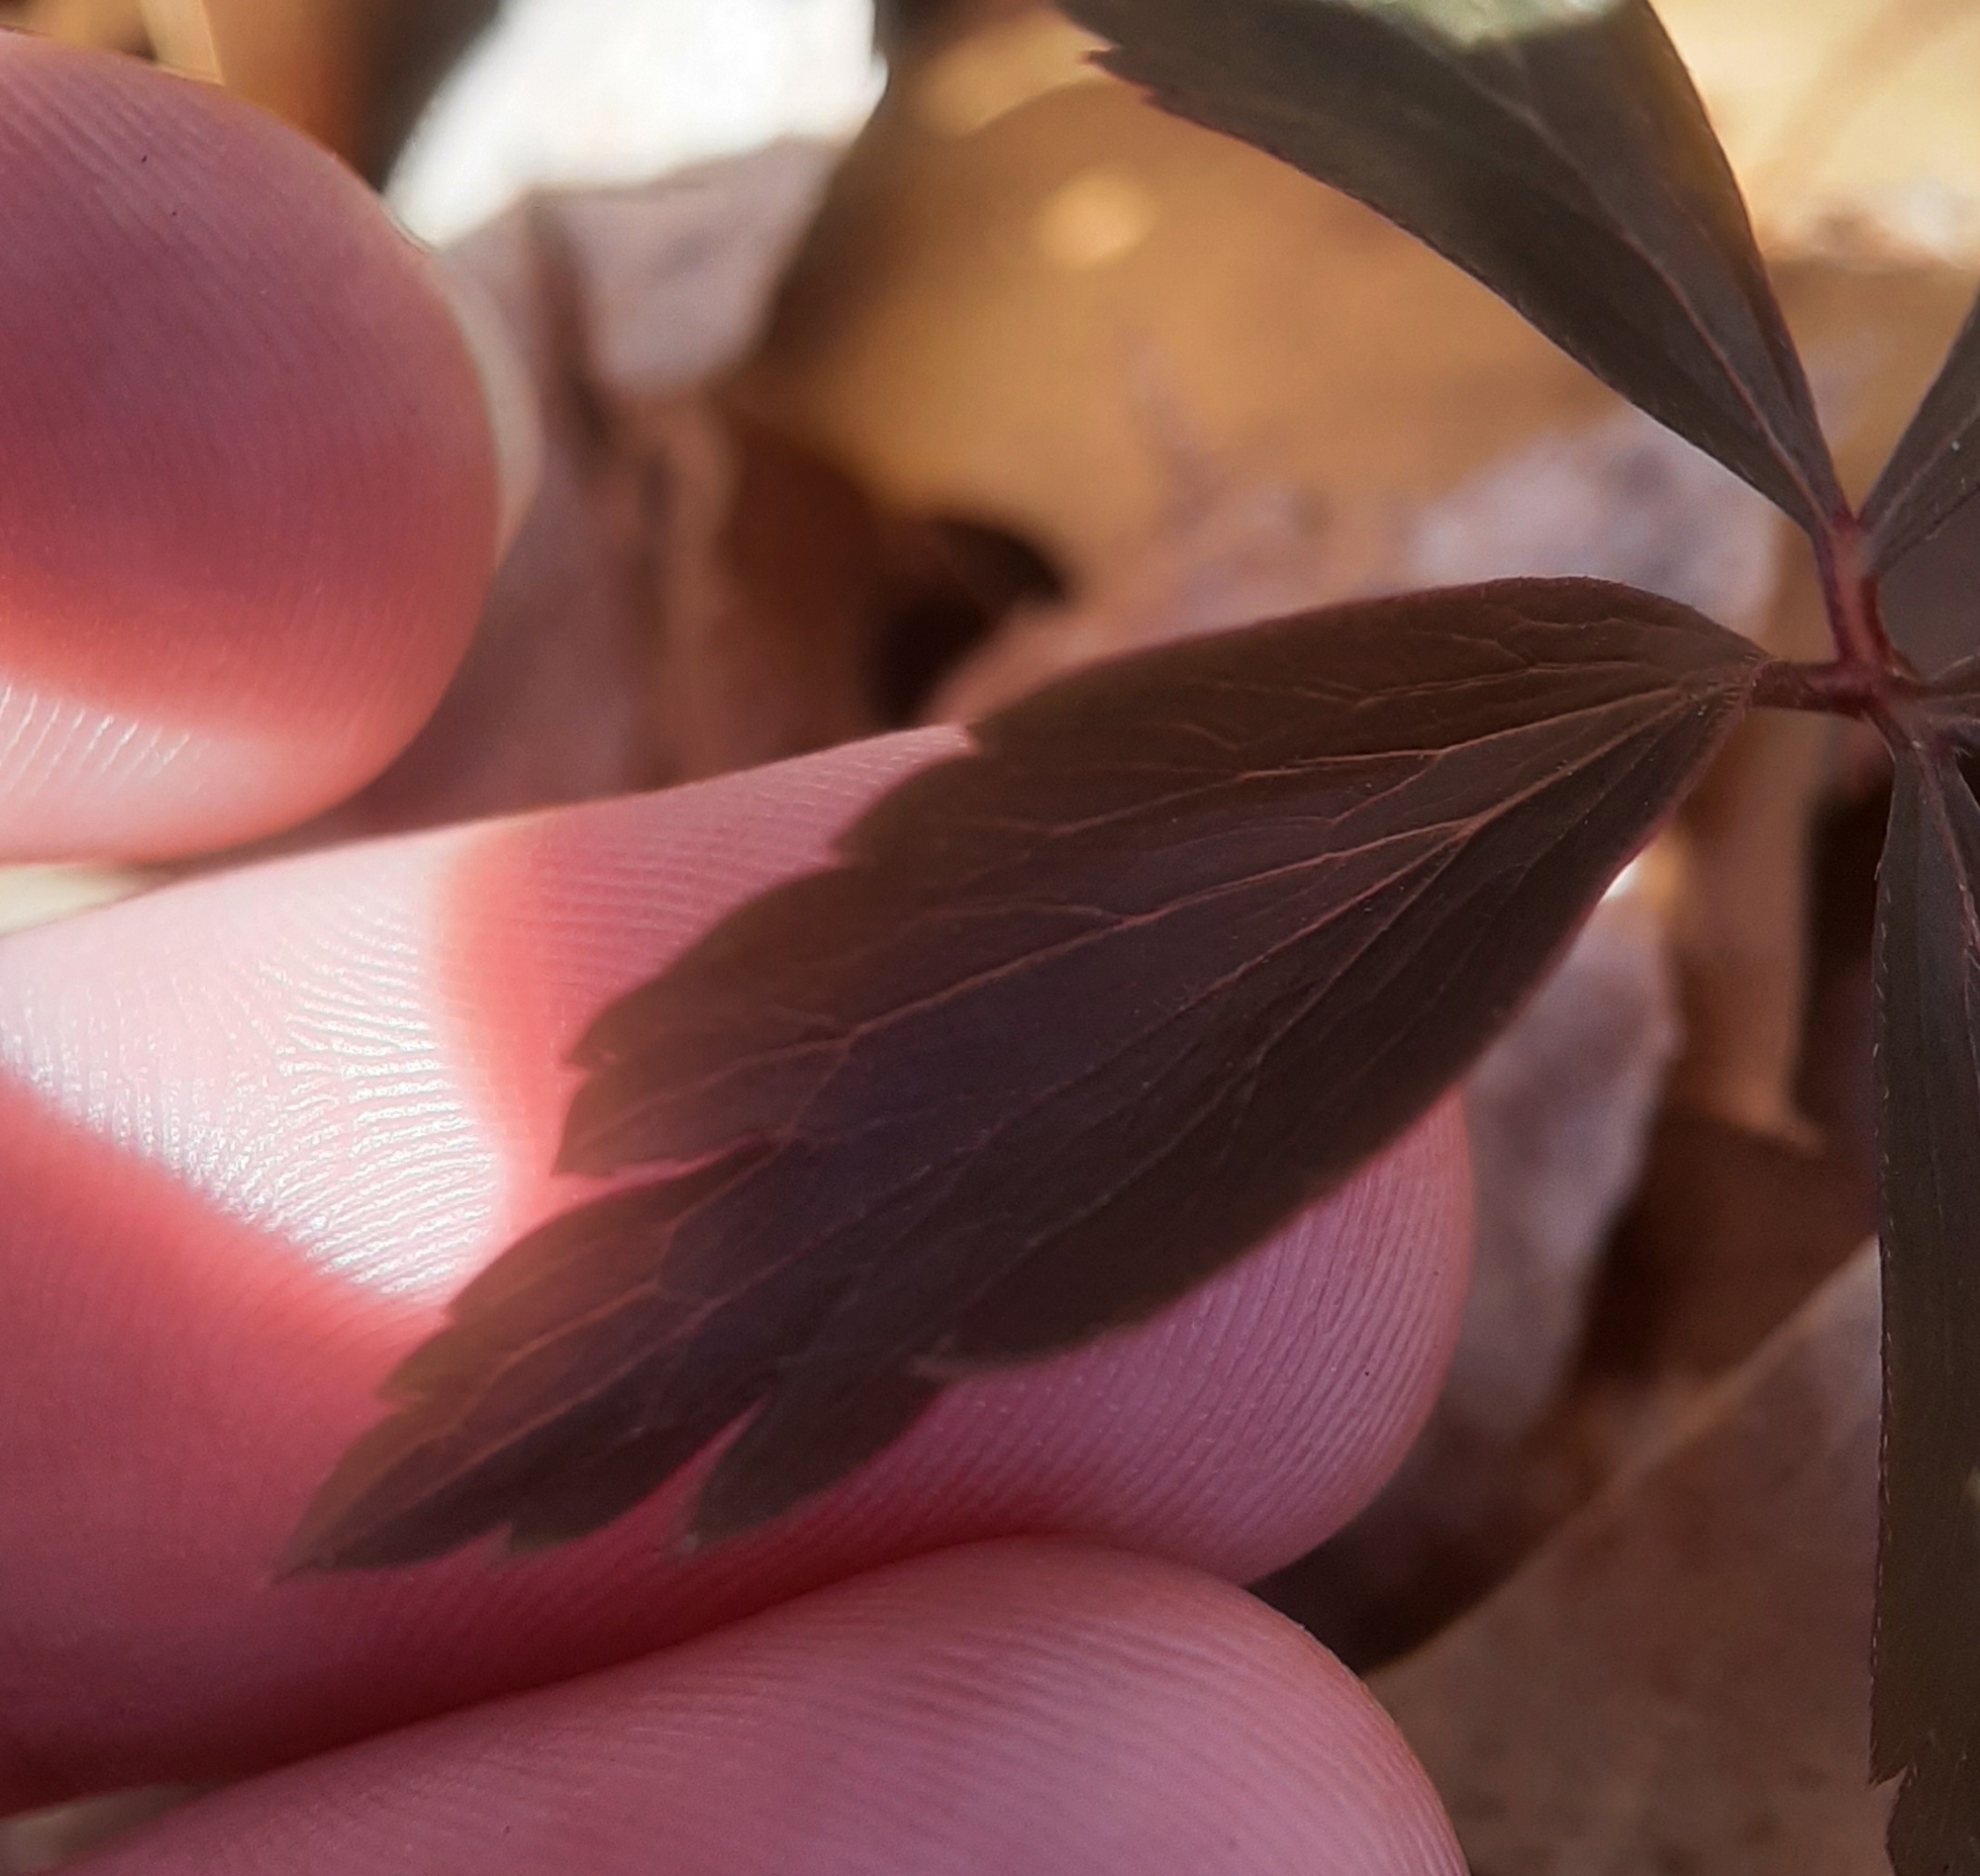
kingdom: Plantae
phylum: Tracheophyta
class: Magnoliopsida
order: Ranunculales
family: Ranunculaceae
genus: Anemone
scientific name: Anemone quinquefolia
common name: Wood anemone
